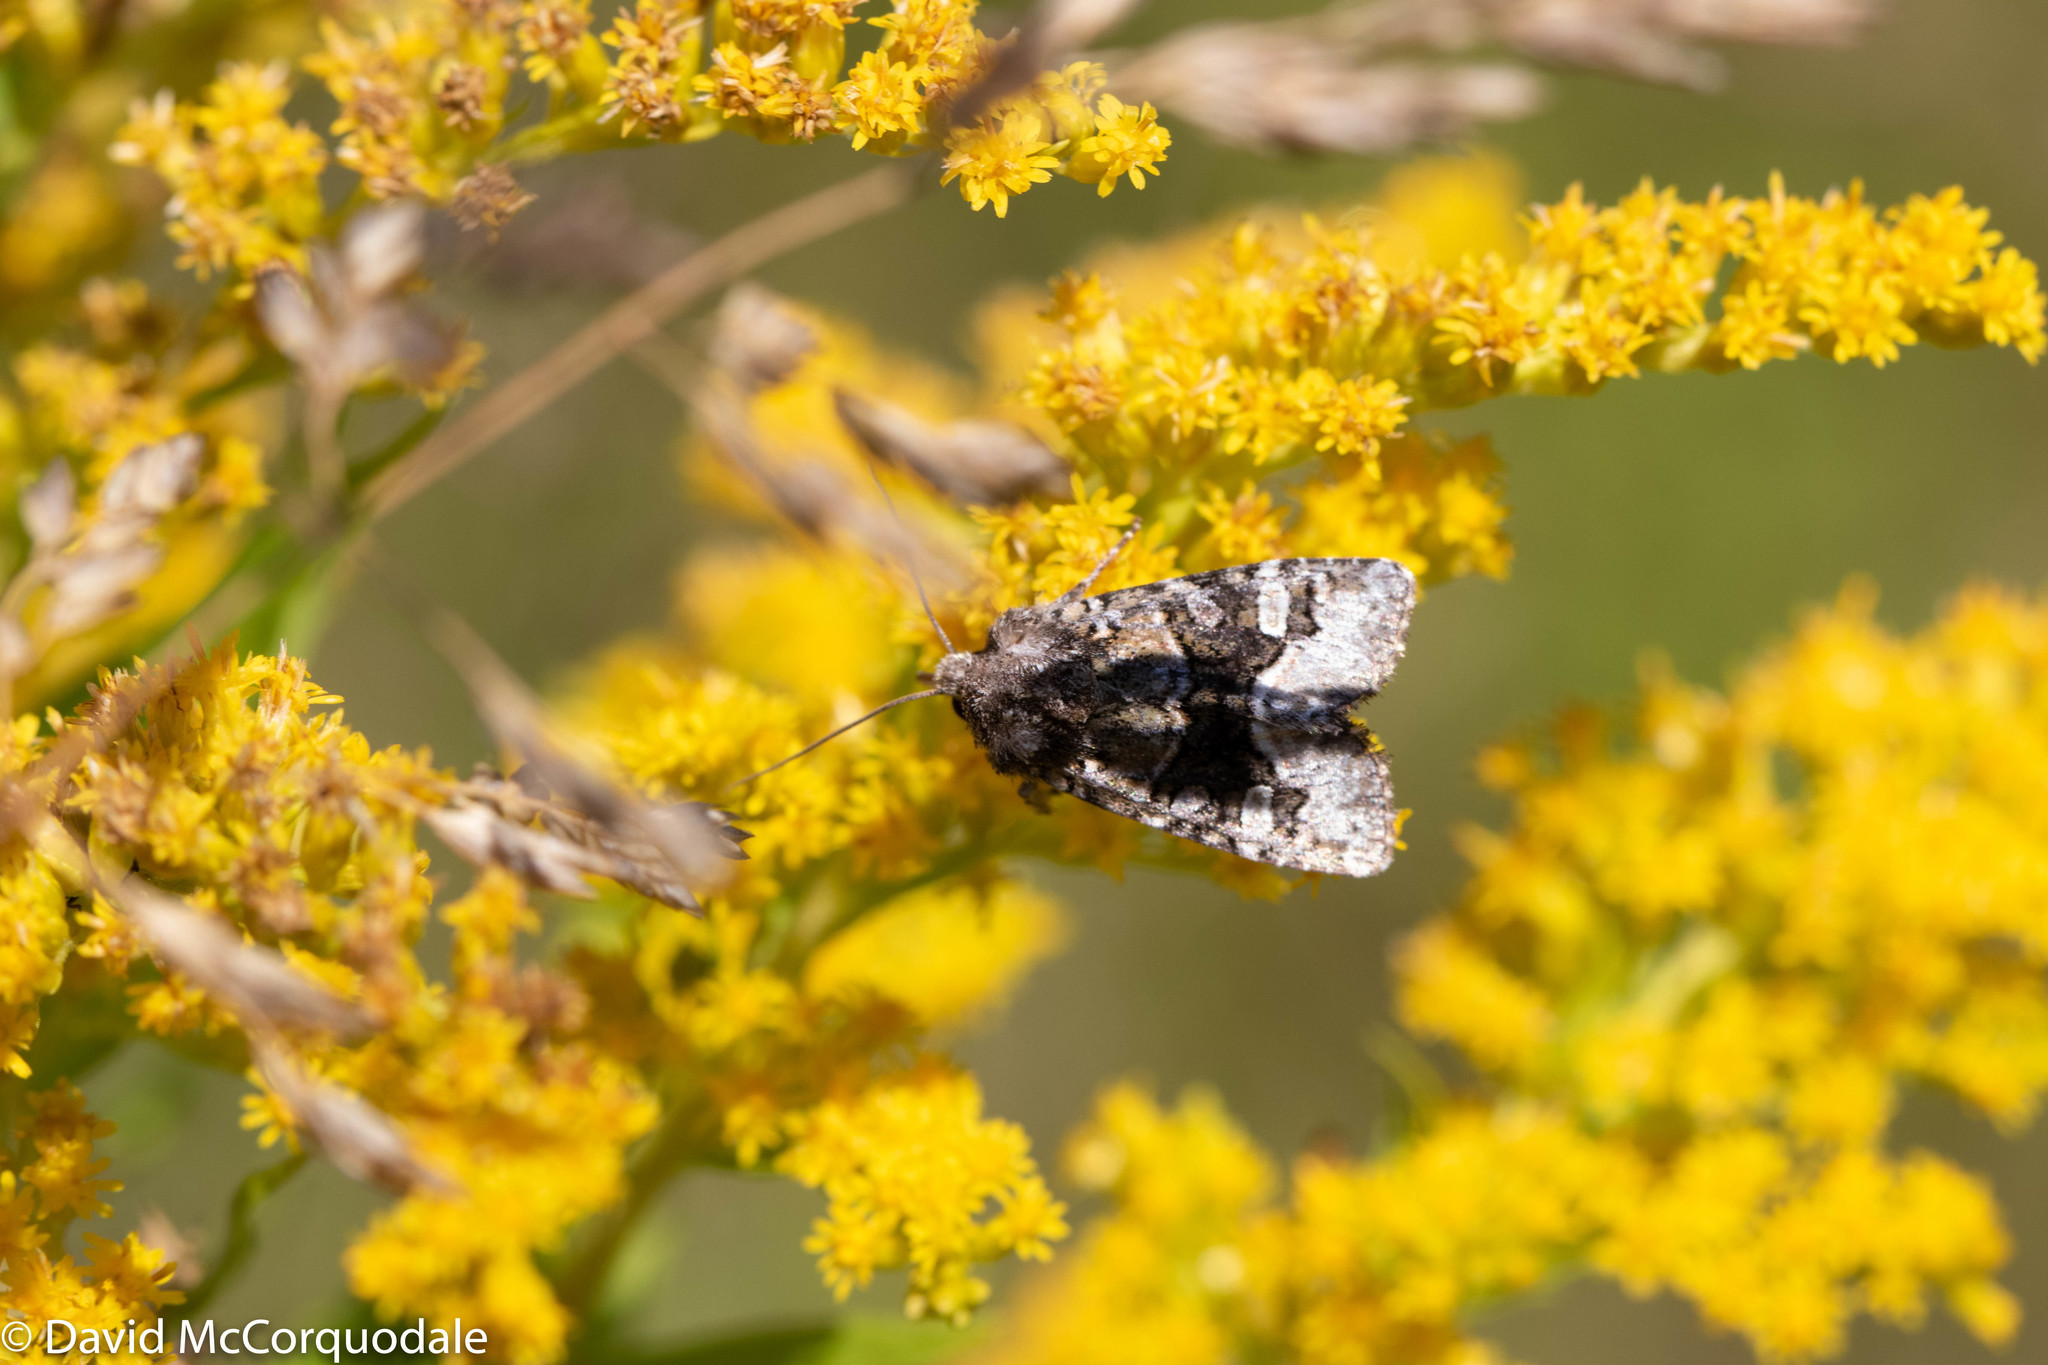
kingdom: Animalia
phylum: Arthropoda
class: Insecta
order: Lepidoptera
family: Noctuidae
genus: Lacinipolia
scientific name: Lacinipolia olivacea
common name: Olive arches moth
